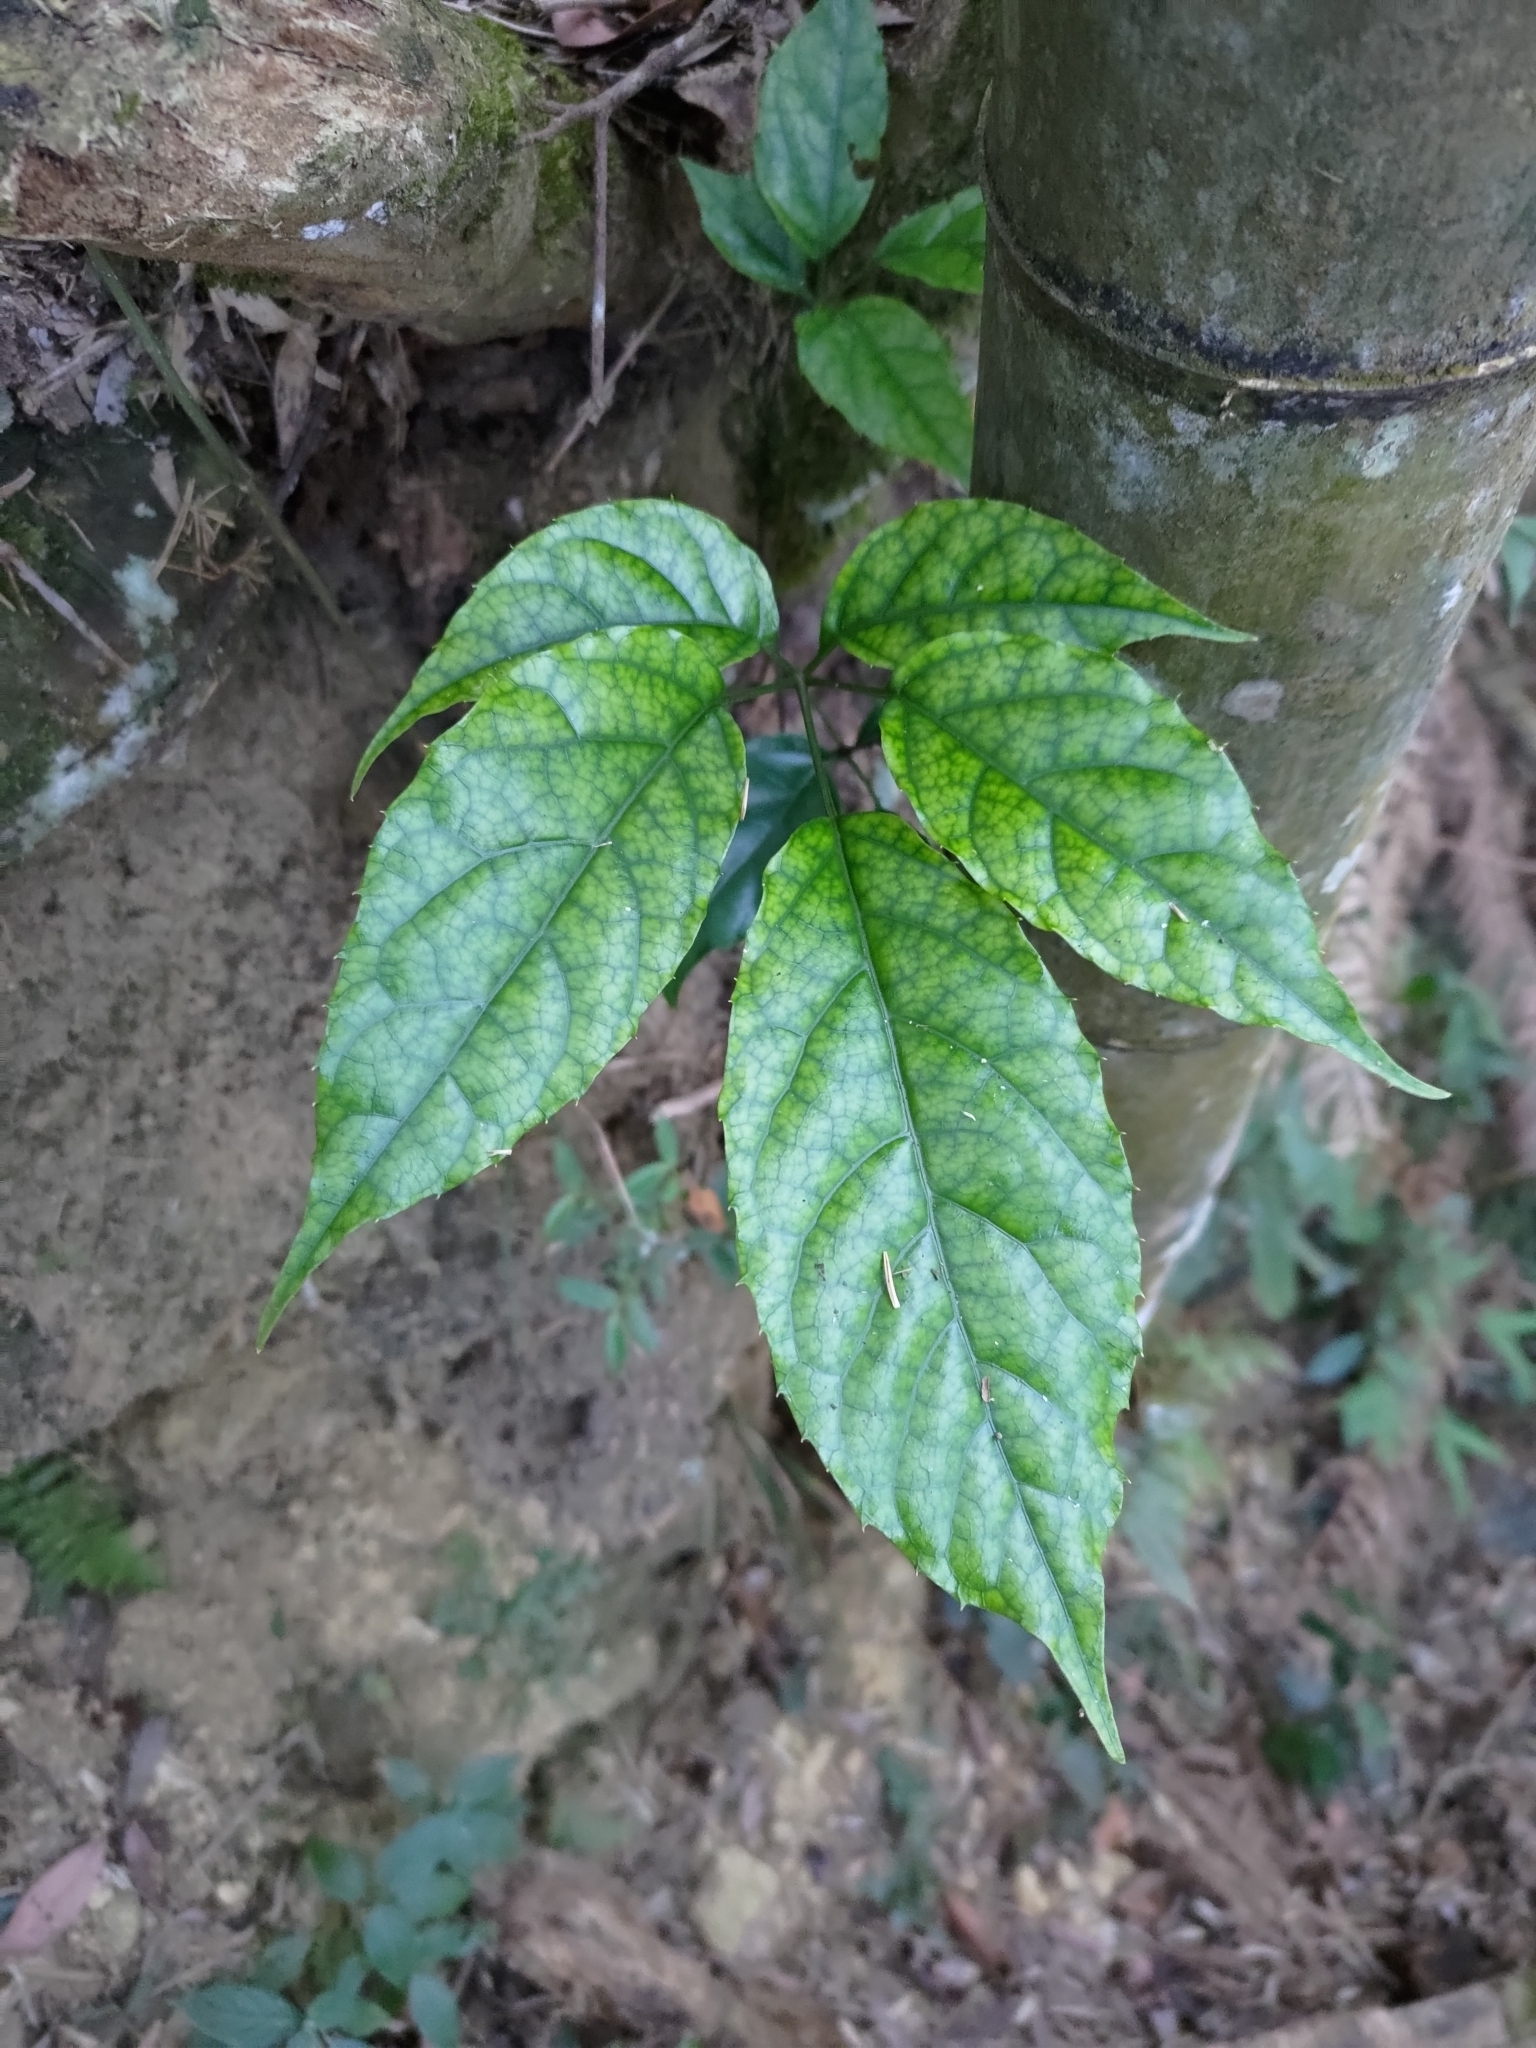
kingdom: Plantae
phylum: Tracheophyta
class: Magnoliopsida
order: Apiales
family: Araliaceae
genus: Heptapleurum
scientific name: Heptapleurum heptaphyllum
